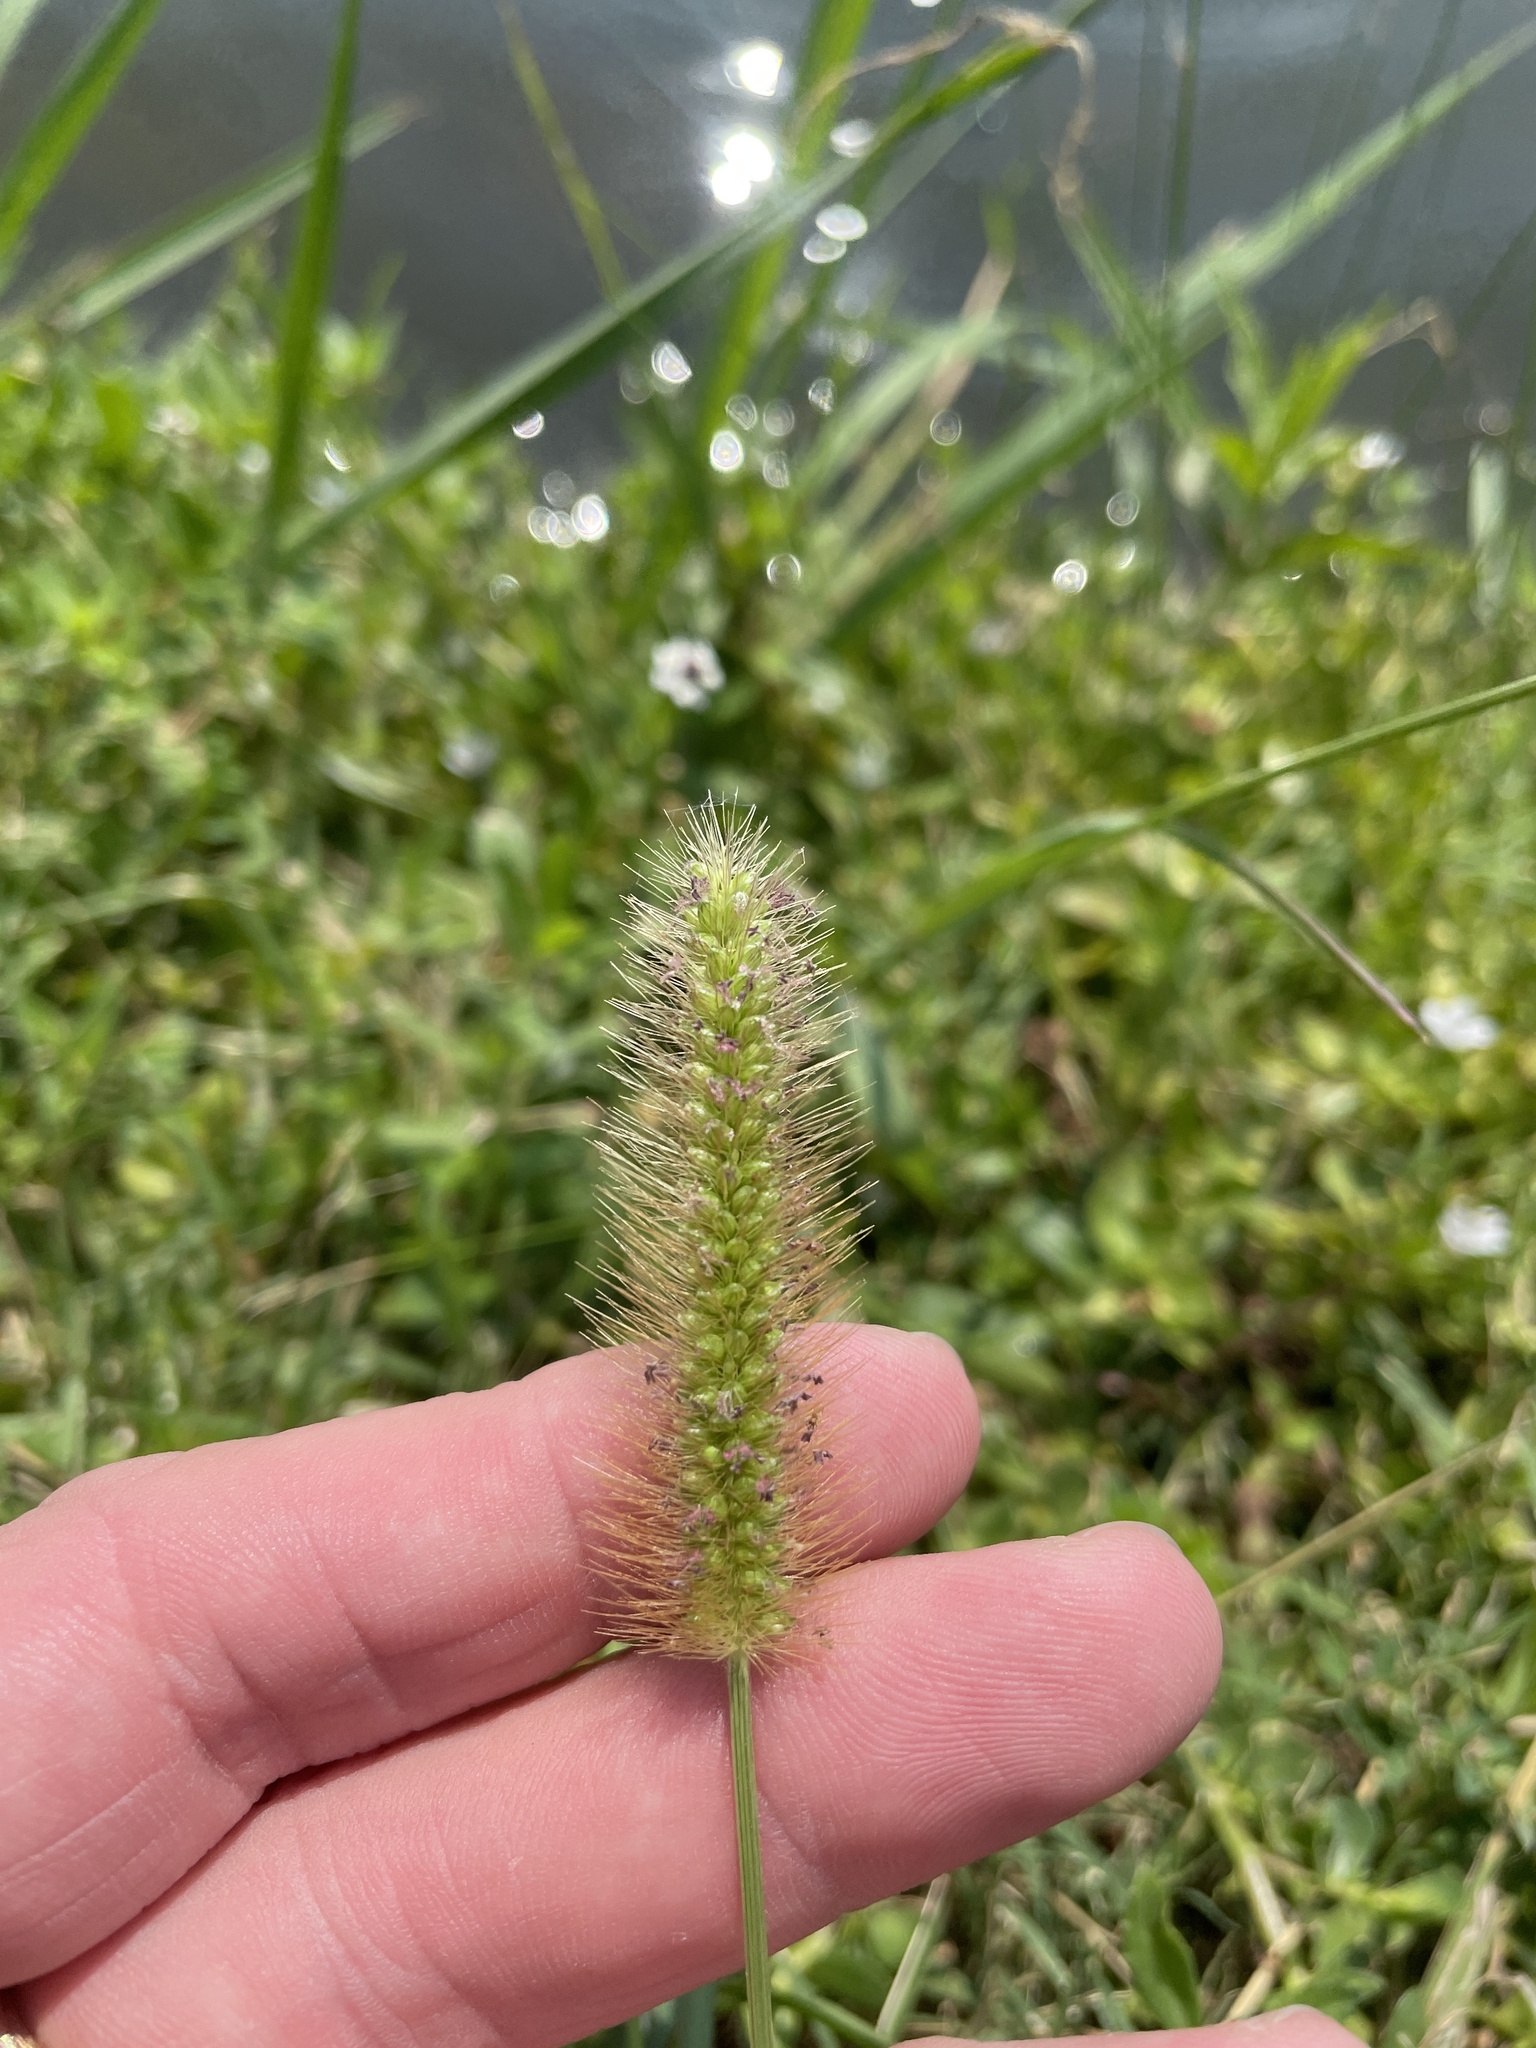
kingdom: Plantae
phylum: Tracheophyta
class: Liliopsida
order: Poales
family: Poaceae
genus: Setaria
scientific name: Setaria parviflora
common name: Knotroot bristle-grass
